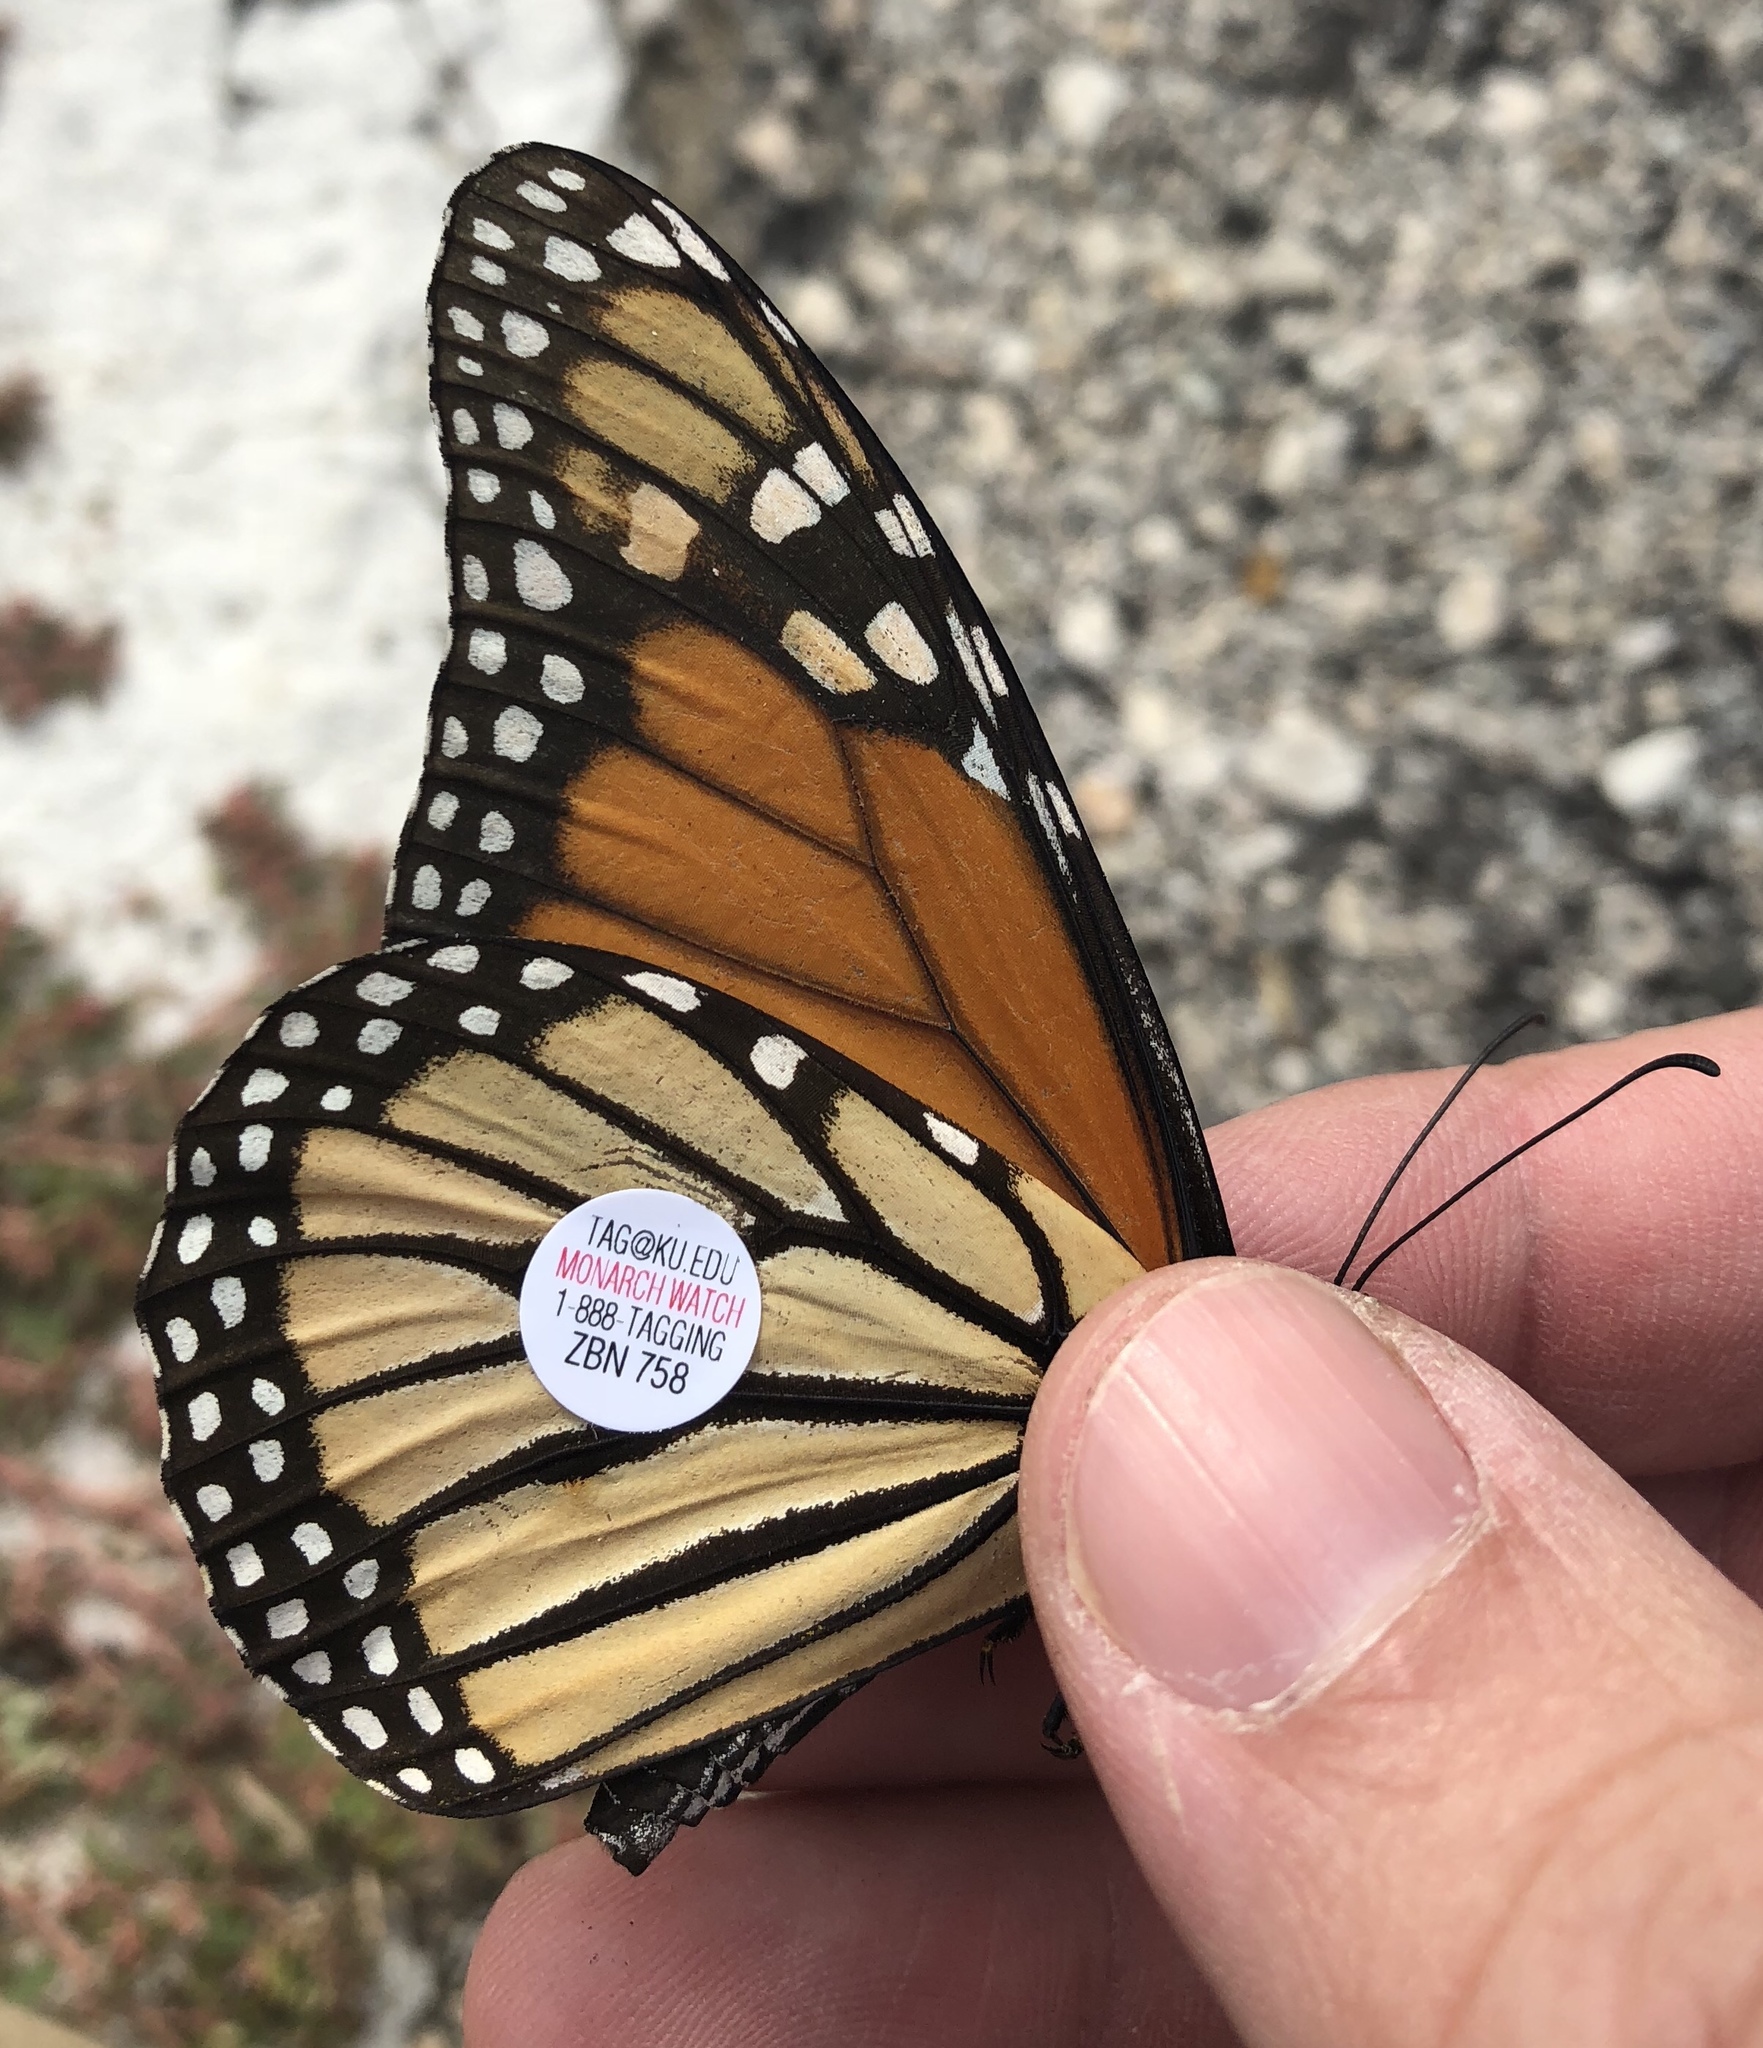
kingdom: Animalia
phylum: Arthropoda
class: Insecta
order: Lepidoptera
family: Nymphalidae
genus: Danaus
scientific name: Danaus plexippus
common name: Monarch
